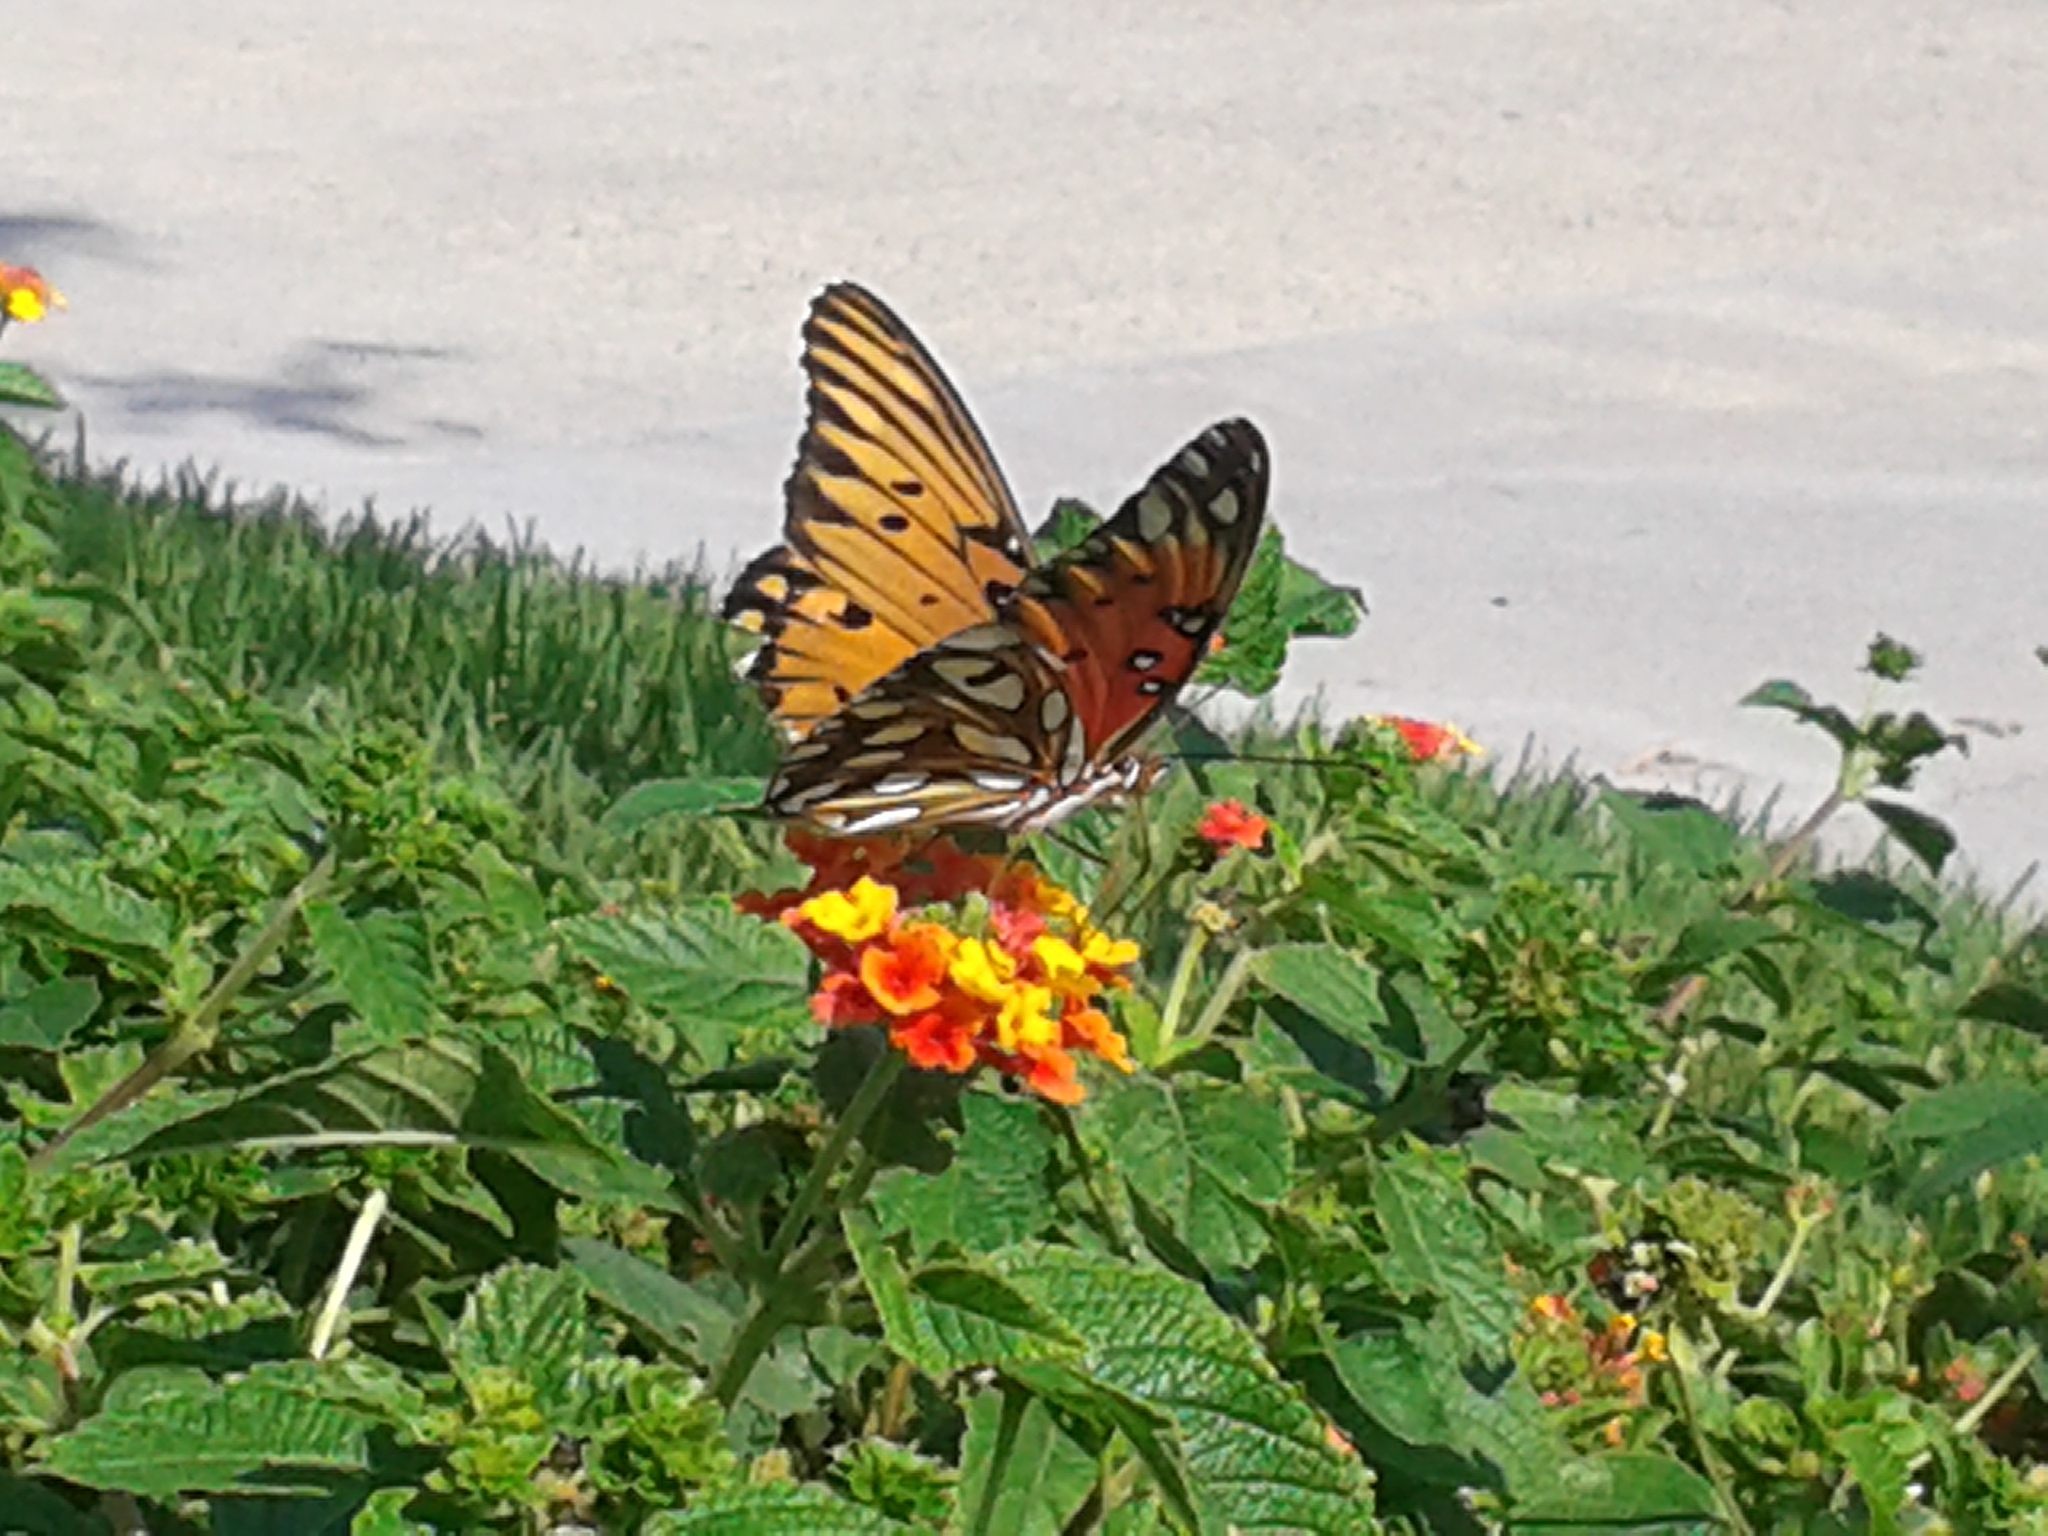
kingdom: Animalia
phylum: Arthropoda
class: Insecta
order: Lepidoptera
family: Nymphalidae
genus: Dione
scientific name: Dione vanillae
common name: Gulf fritillary
